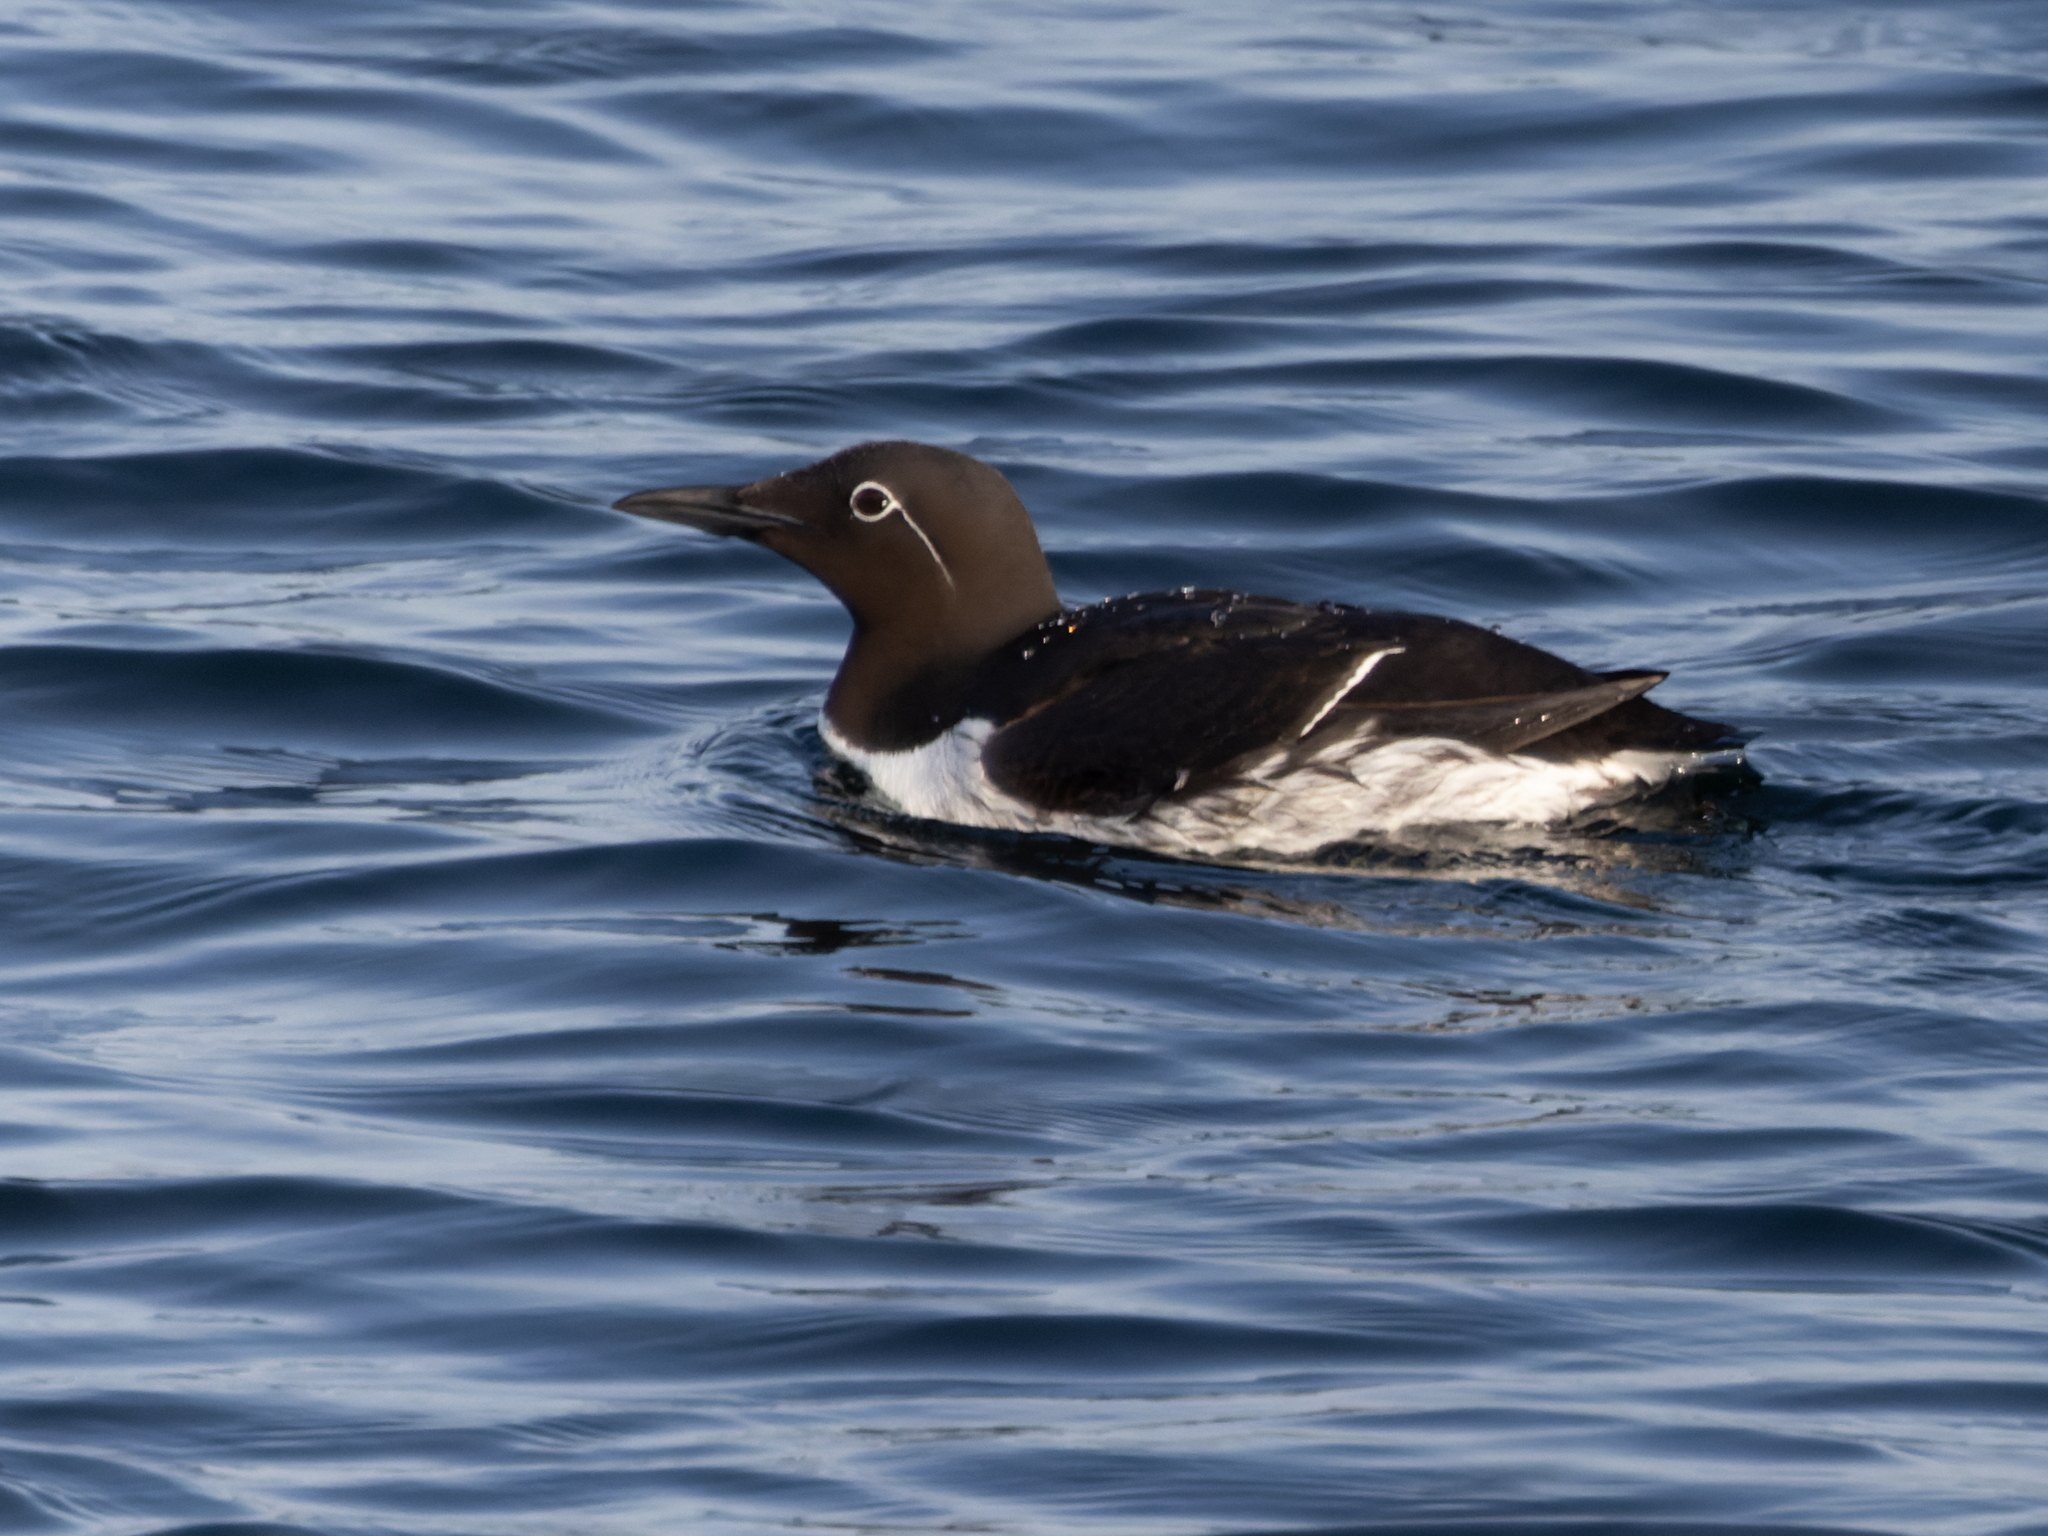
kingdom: Animalia
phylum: Chordata
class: Aves
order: Charadriiformes
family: Alcidae
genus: Uria
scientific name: Uria aalge
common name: Common murre
